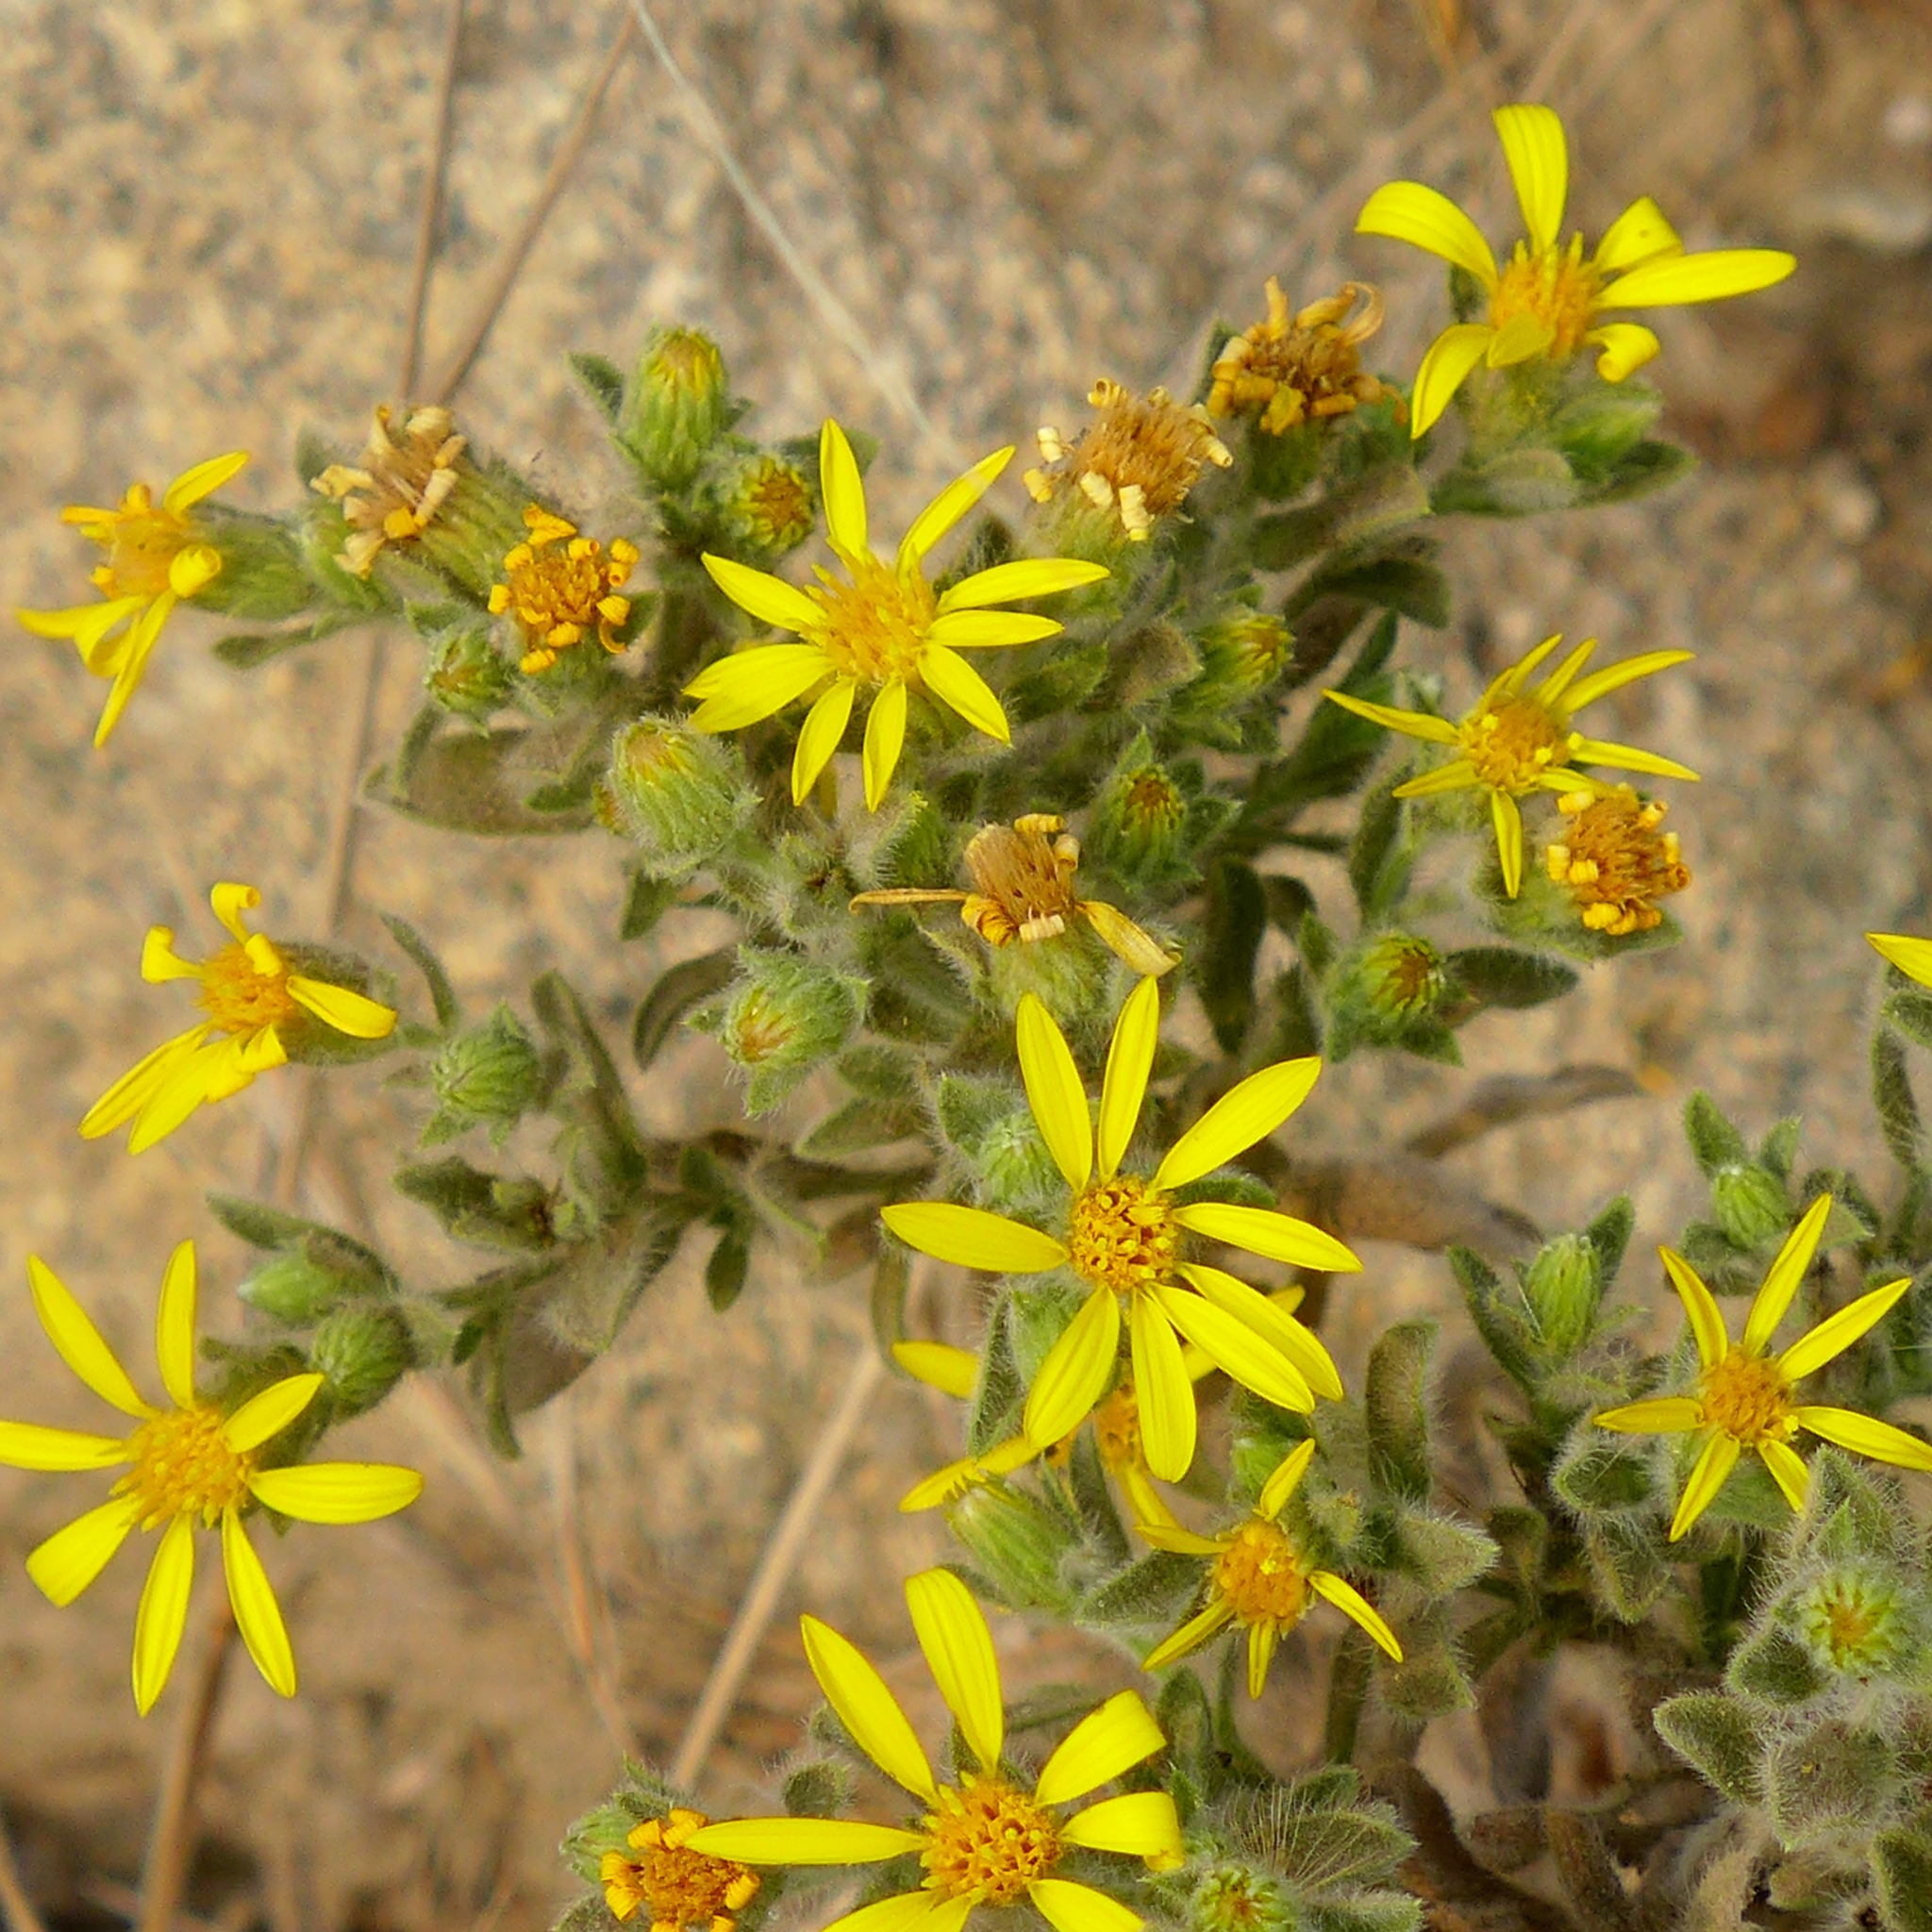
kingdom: Plantae
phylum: Tracheophyta
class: Magnoliopsida
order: Asterales
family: Asteraceae
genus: Heterotheca
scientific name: Heterotheca sessiliflora
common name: Sessile-flower golden-aster
